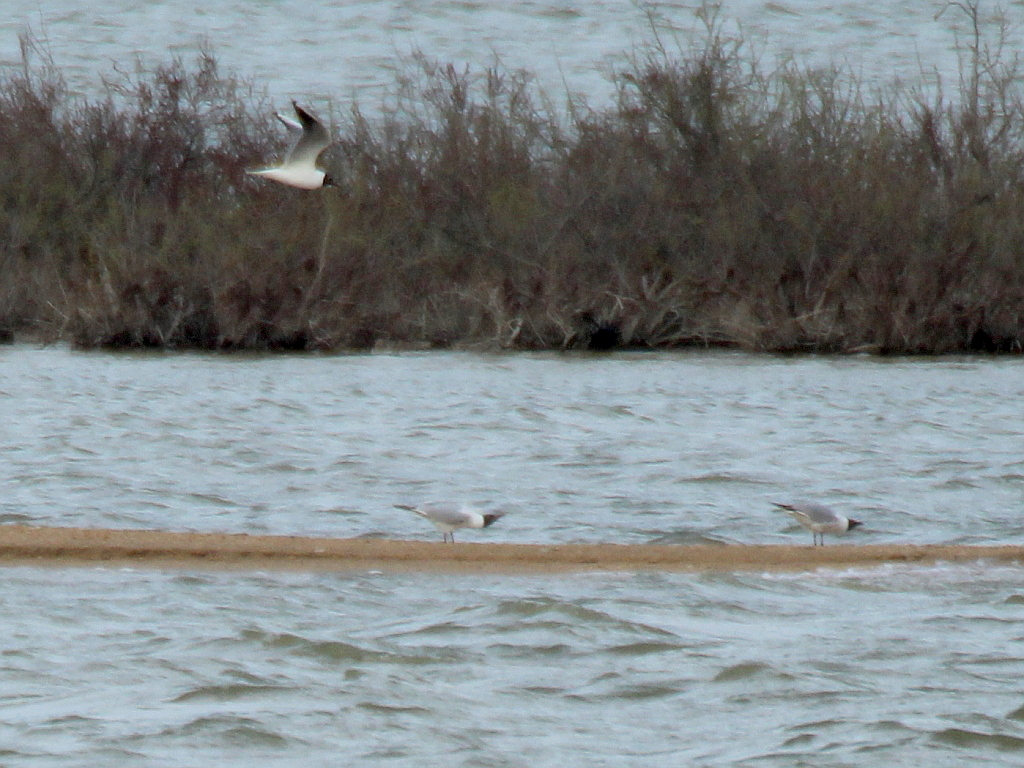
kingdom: Animalia
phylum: Chordata
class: Aves
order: Charadriiformes
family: Laridae
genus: Chroicocephalus
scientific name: Chroicocephalus ridibundus
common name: Black-headed gull
